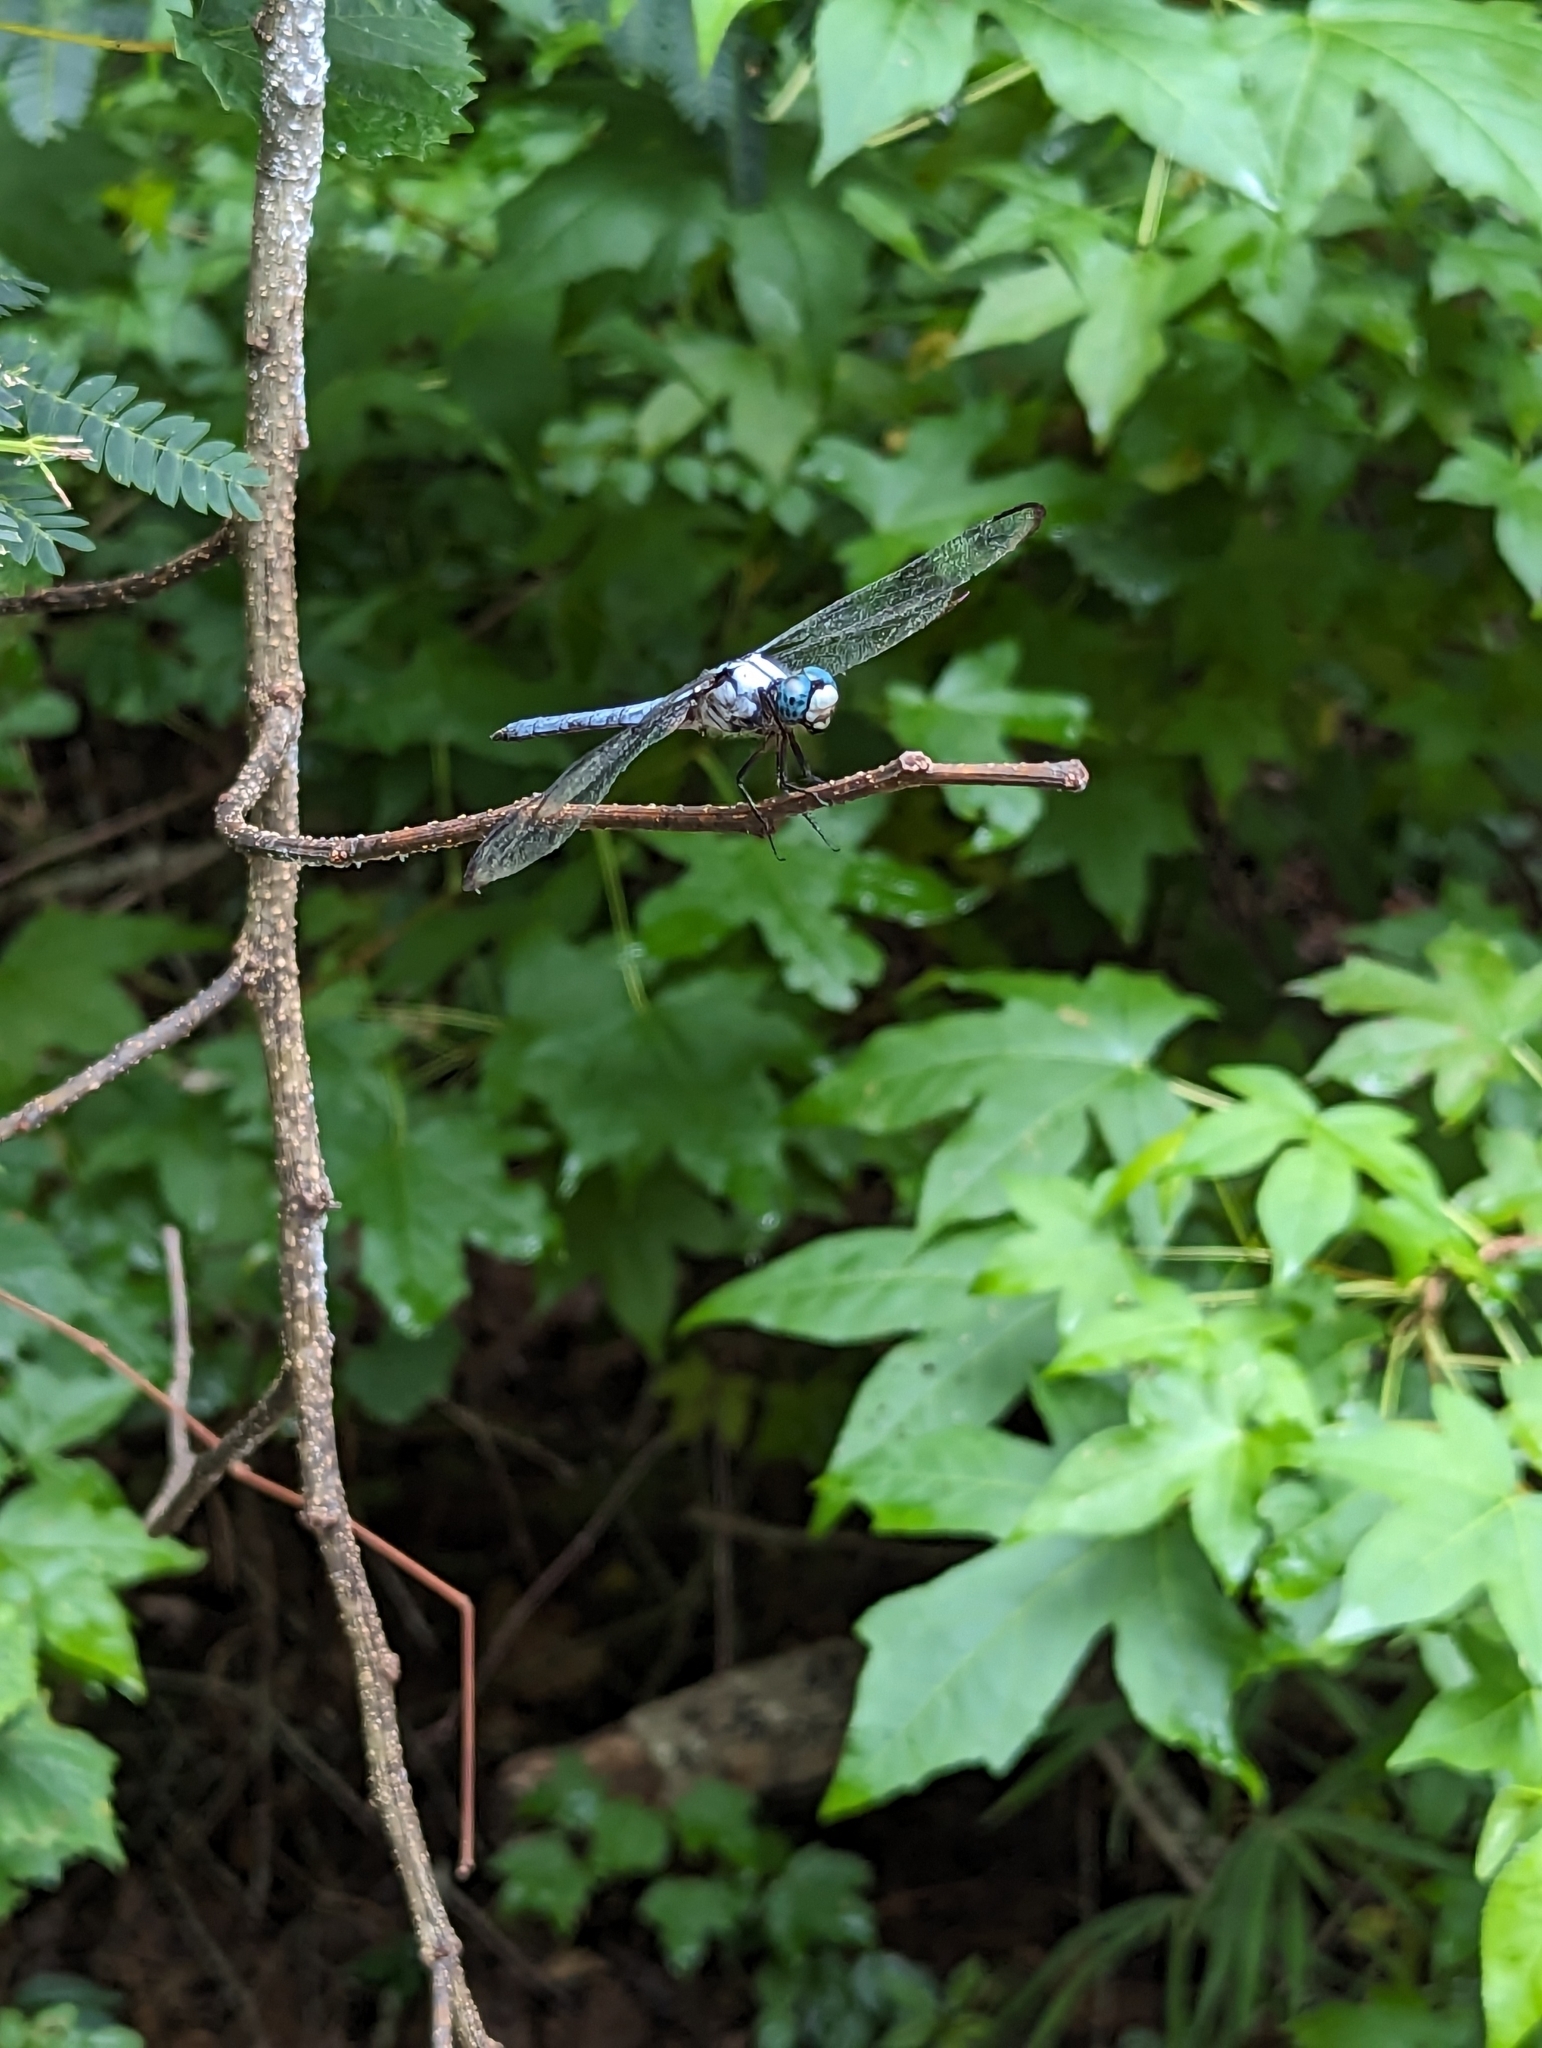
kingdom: Animalia
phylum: Arthropoda
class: Insecta
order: Odonata
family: Libellulidae
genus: Libellula
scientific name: Libellula vibrans
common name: Great blue skimmer
